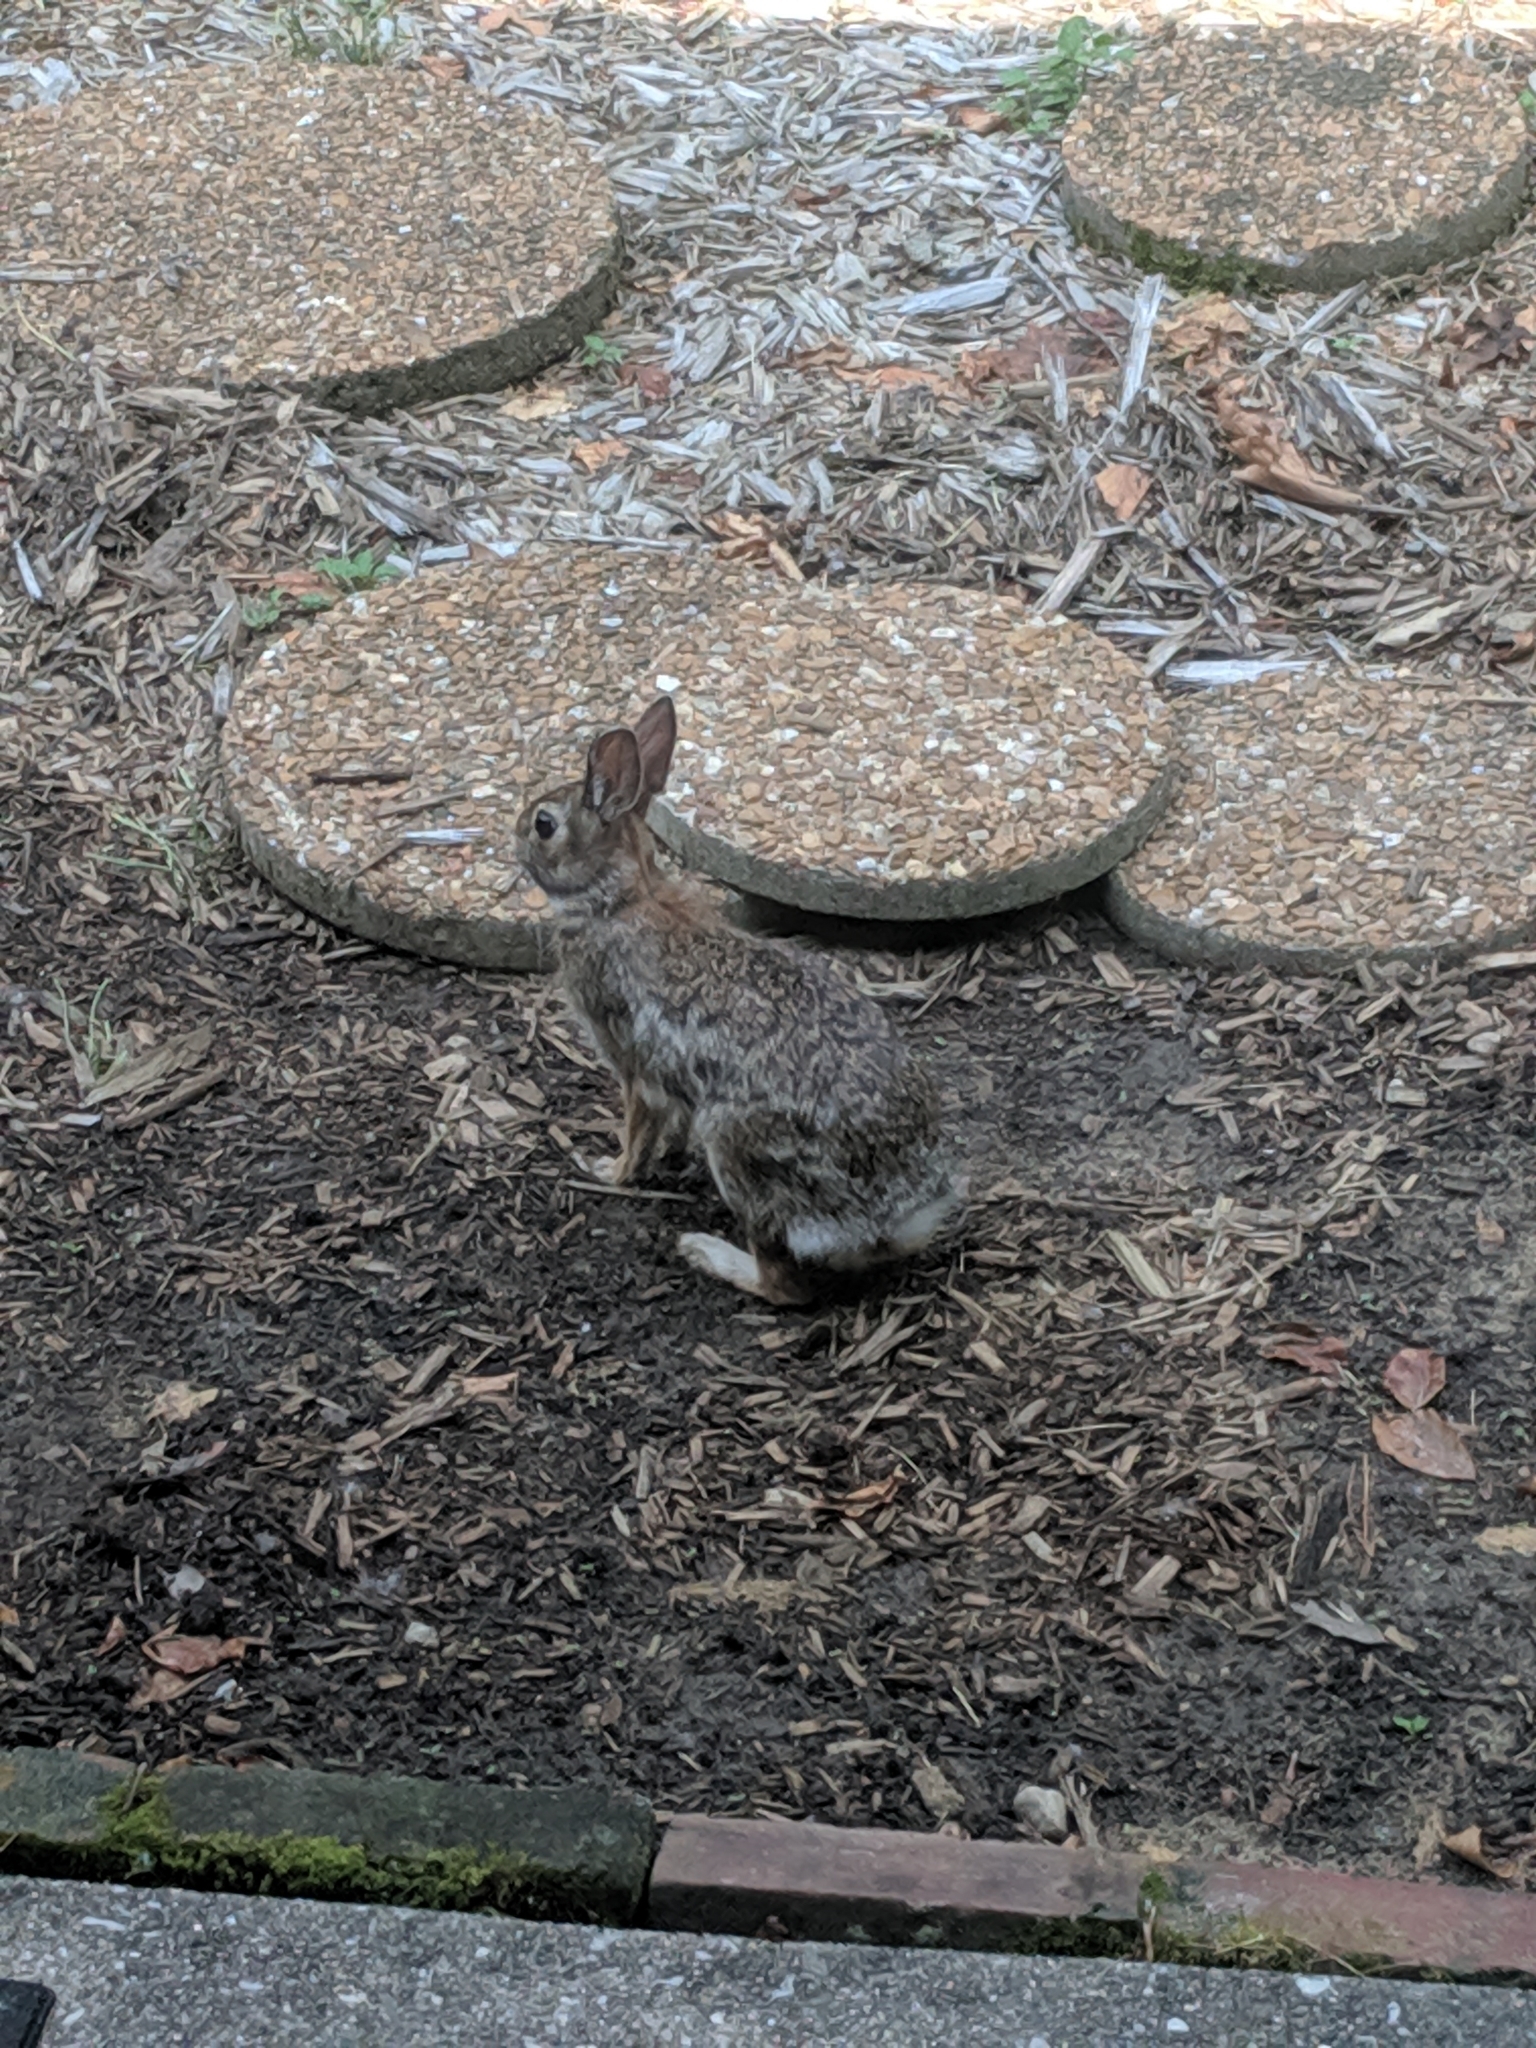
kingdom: Animalia
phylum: Chordata
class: Mammalia
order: Lagomorpha
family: Leporidae
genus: Sylvilagus
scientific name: Sylvilagus floridanus
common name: Eastern cottontail
